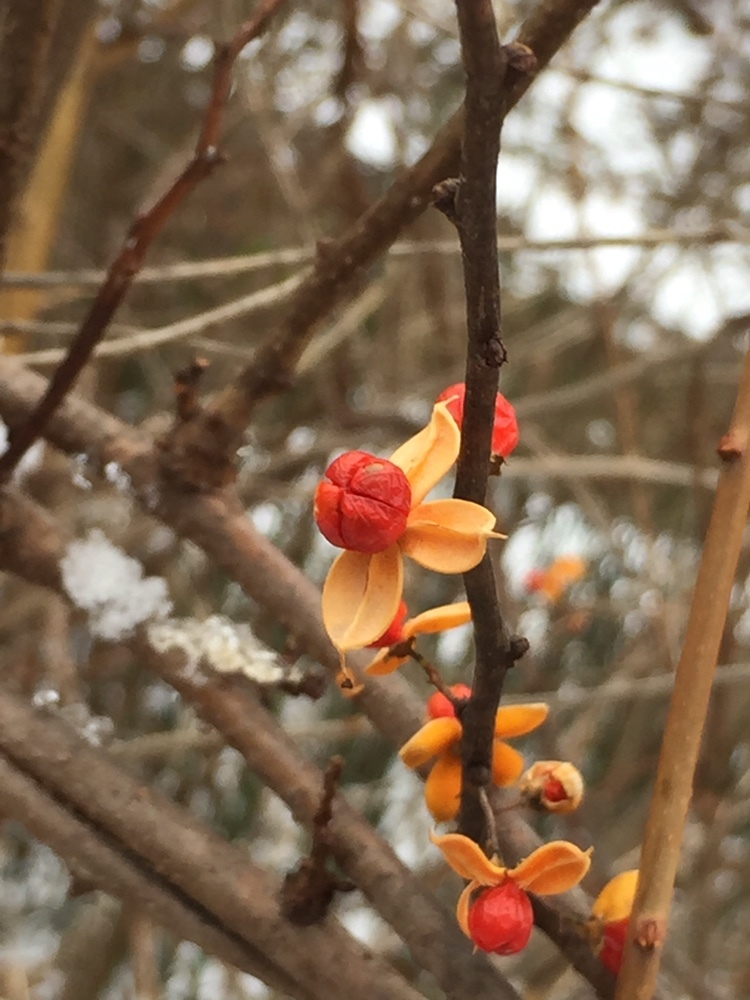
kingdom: Plantae
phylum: Tracheophyta
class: Magnoliopsida
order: Celastrales
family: Celastraceae
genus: Celastrus
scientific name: Celastrus orbiculatus
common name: Oriental bittersweet
